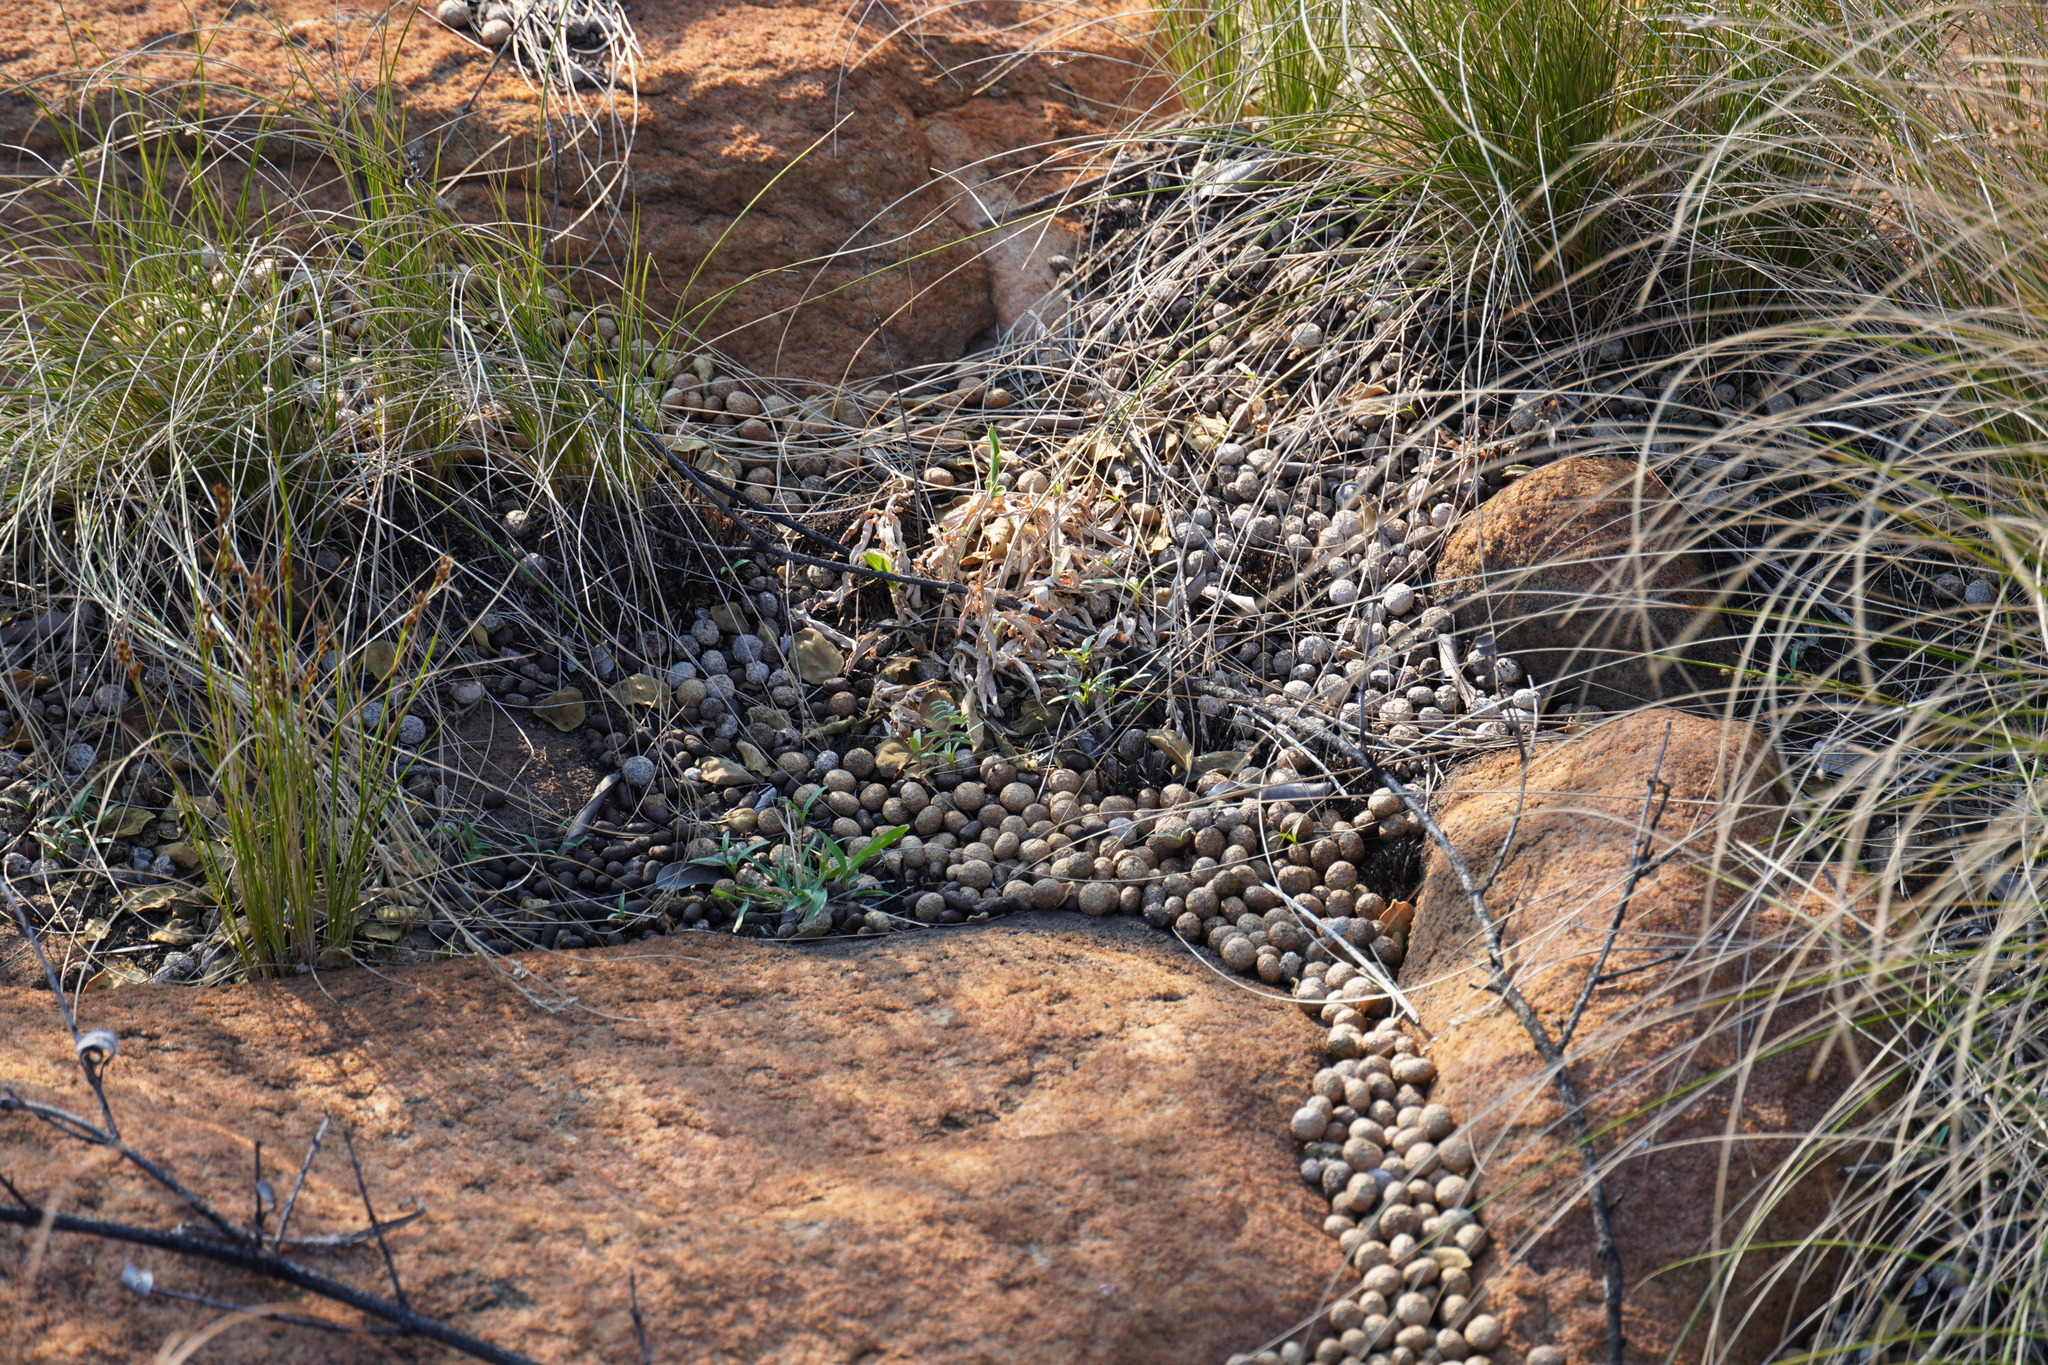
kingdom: Animalia
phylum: Chordata
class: Mammalia
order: Lagomorpha
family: Leporidae
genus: Pronolagus
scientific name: Pronolagus randensis
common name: Jameson's red rock hare
